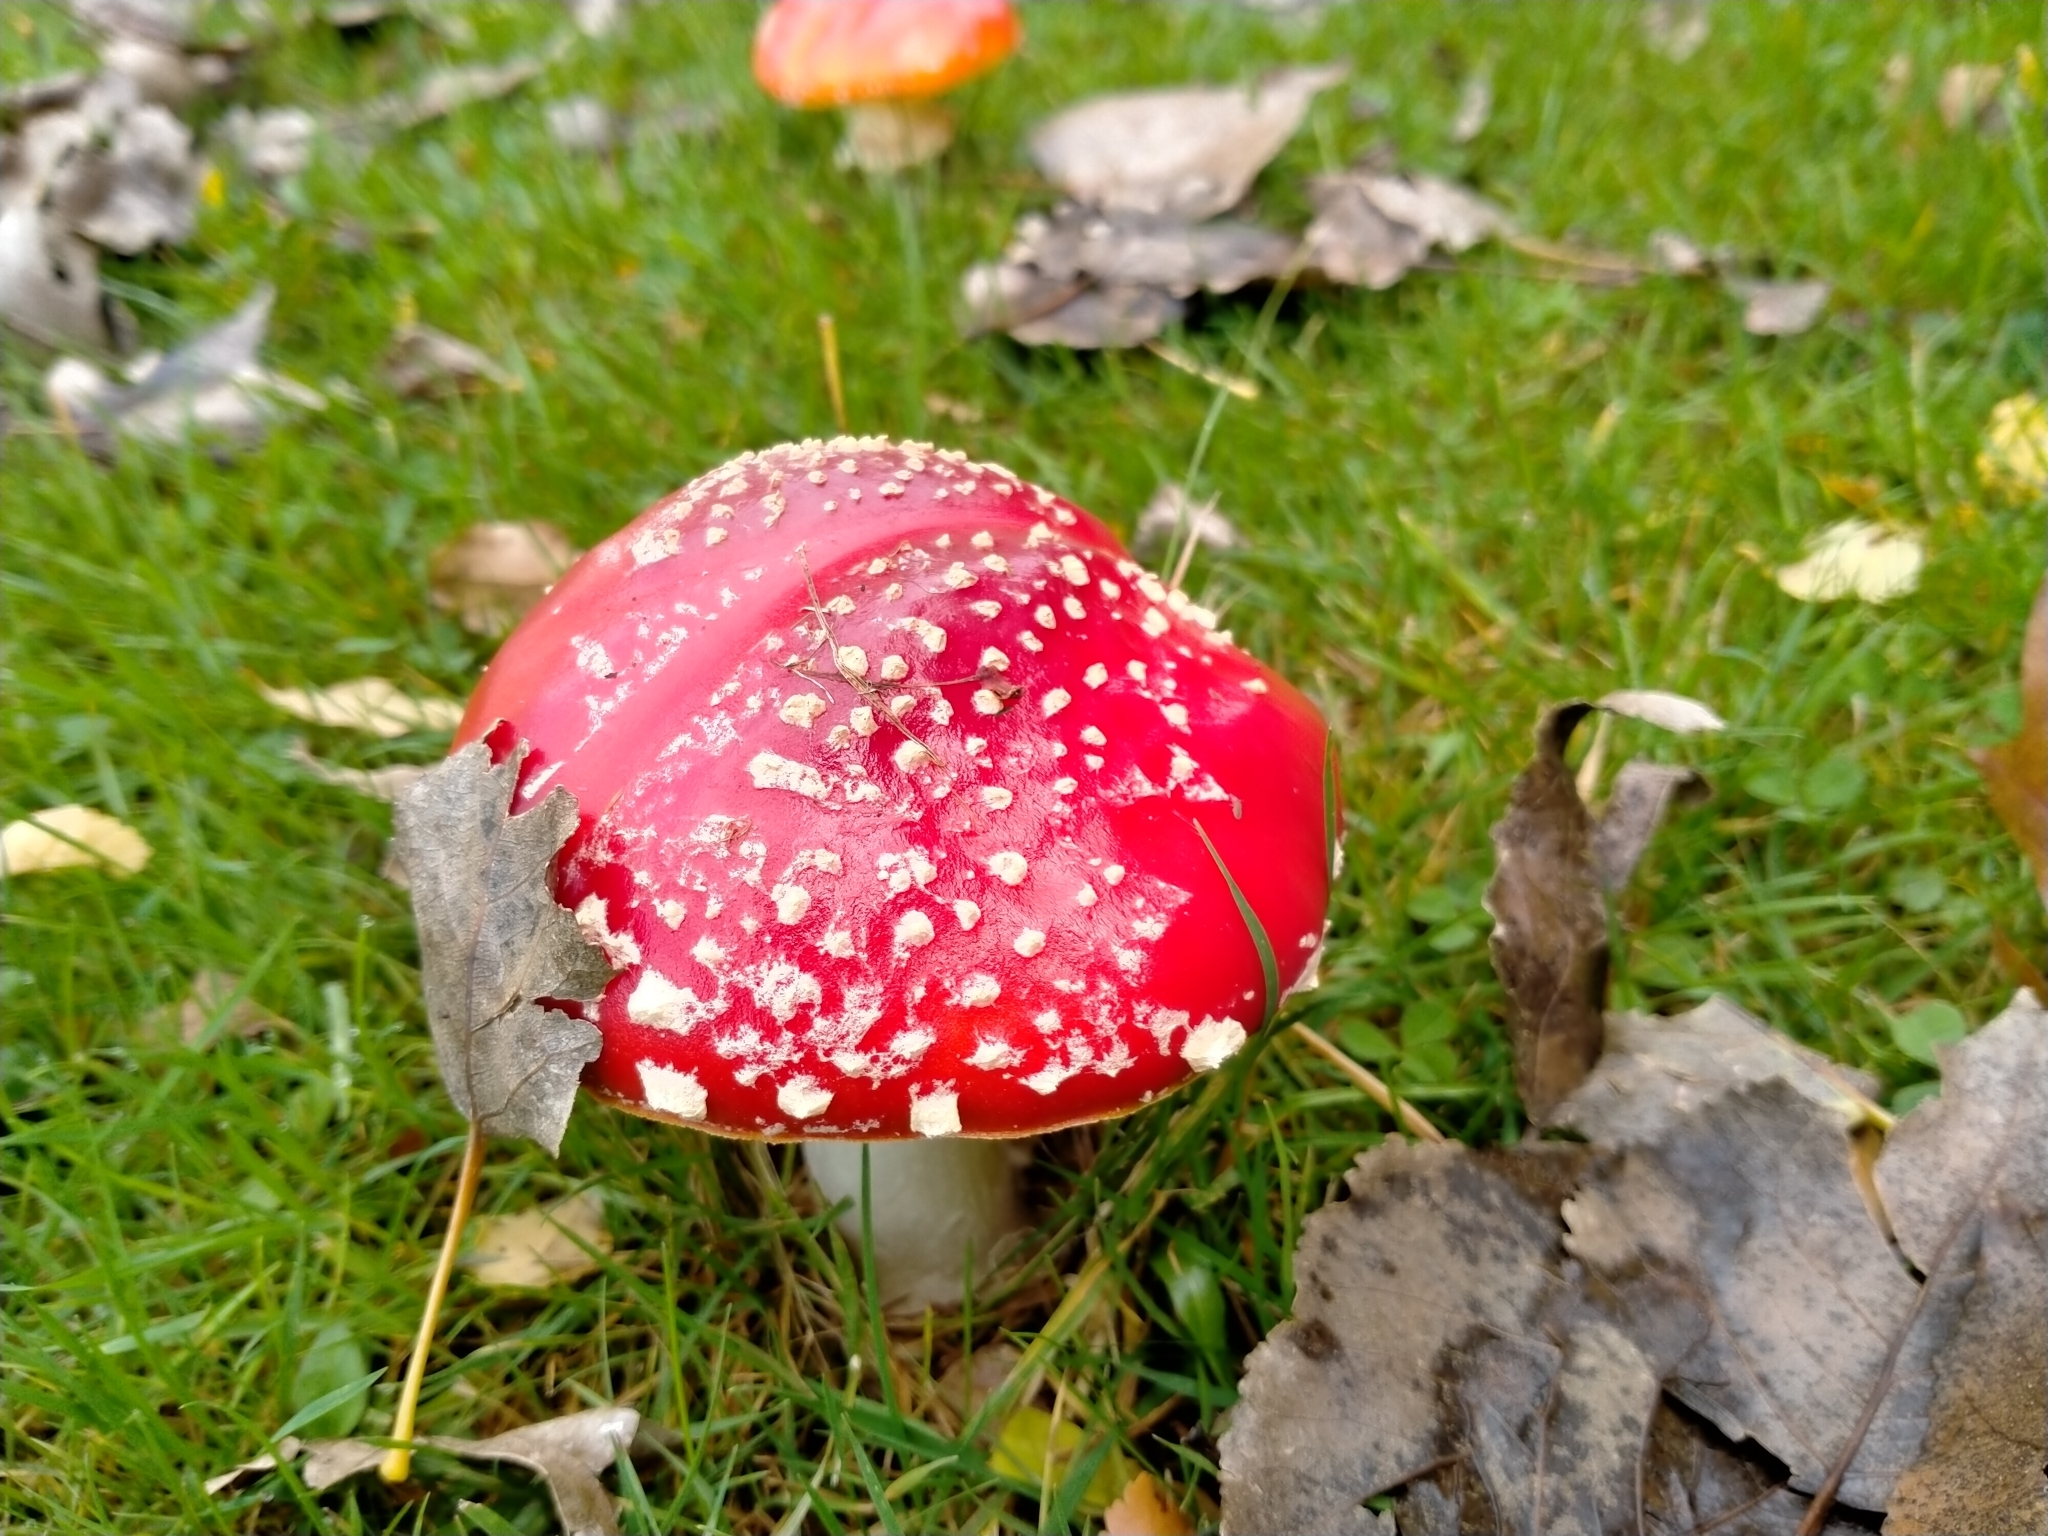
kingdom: Fungi
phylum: Basidiomycota
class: Agaricomycetes
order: Agaricales
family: Amanitaceae
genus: Amanita
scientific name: Amanita muscaria
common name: Fly agaric
